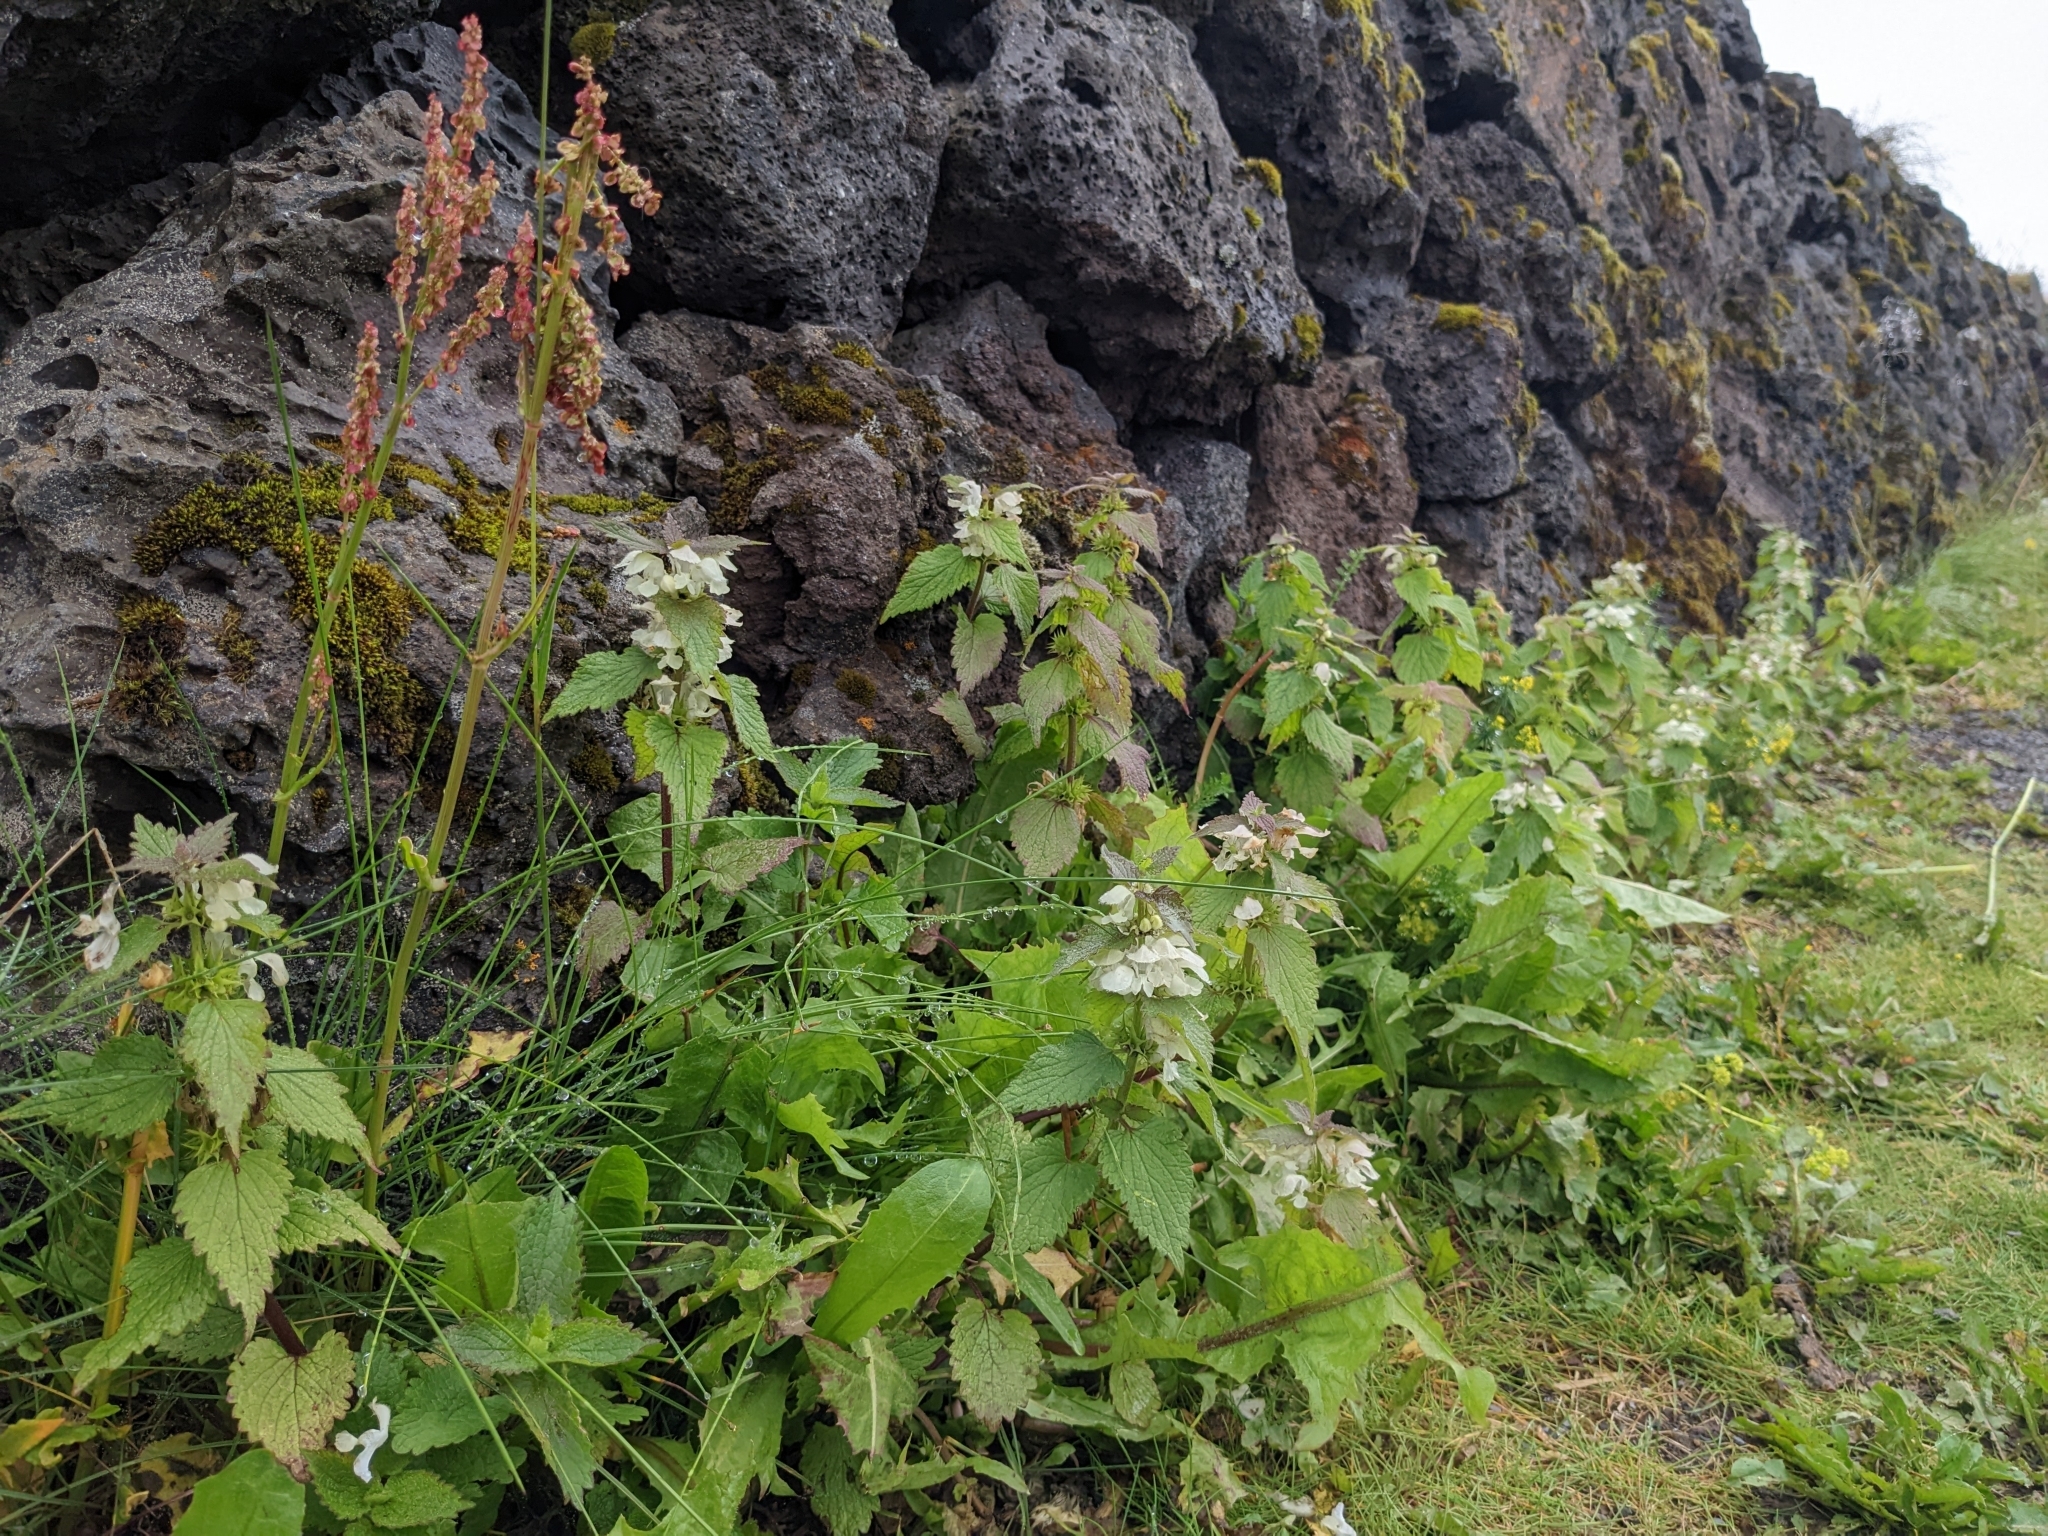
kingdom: Plantae
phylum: Tracheophyta
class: Magnoliopsida
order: Lamiales
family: Lamiaceae
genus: Lamium
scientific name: Lamium album
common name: White dead-nettle
